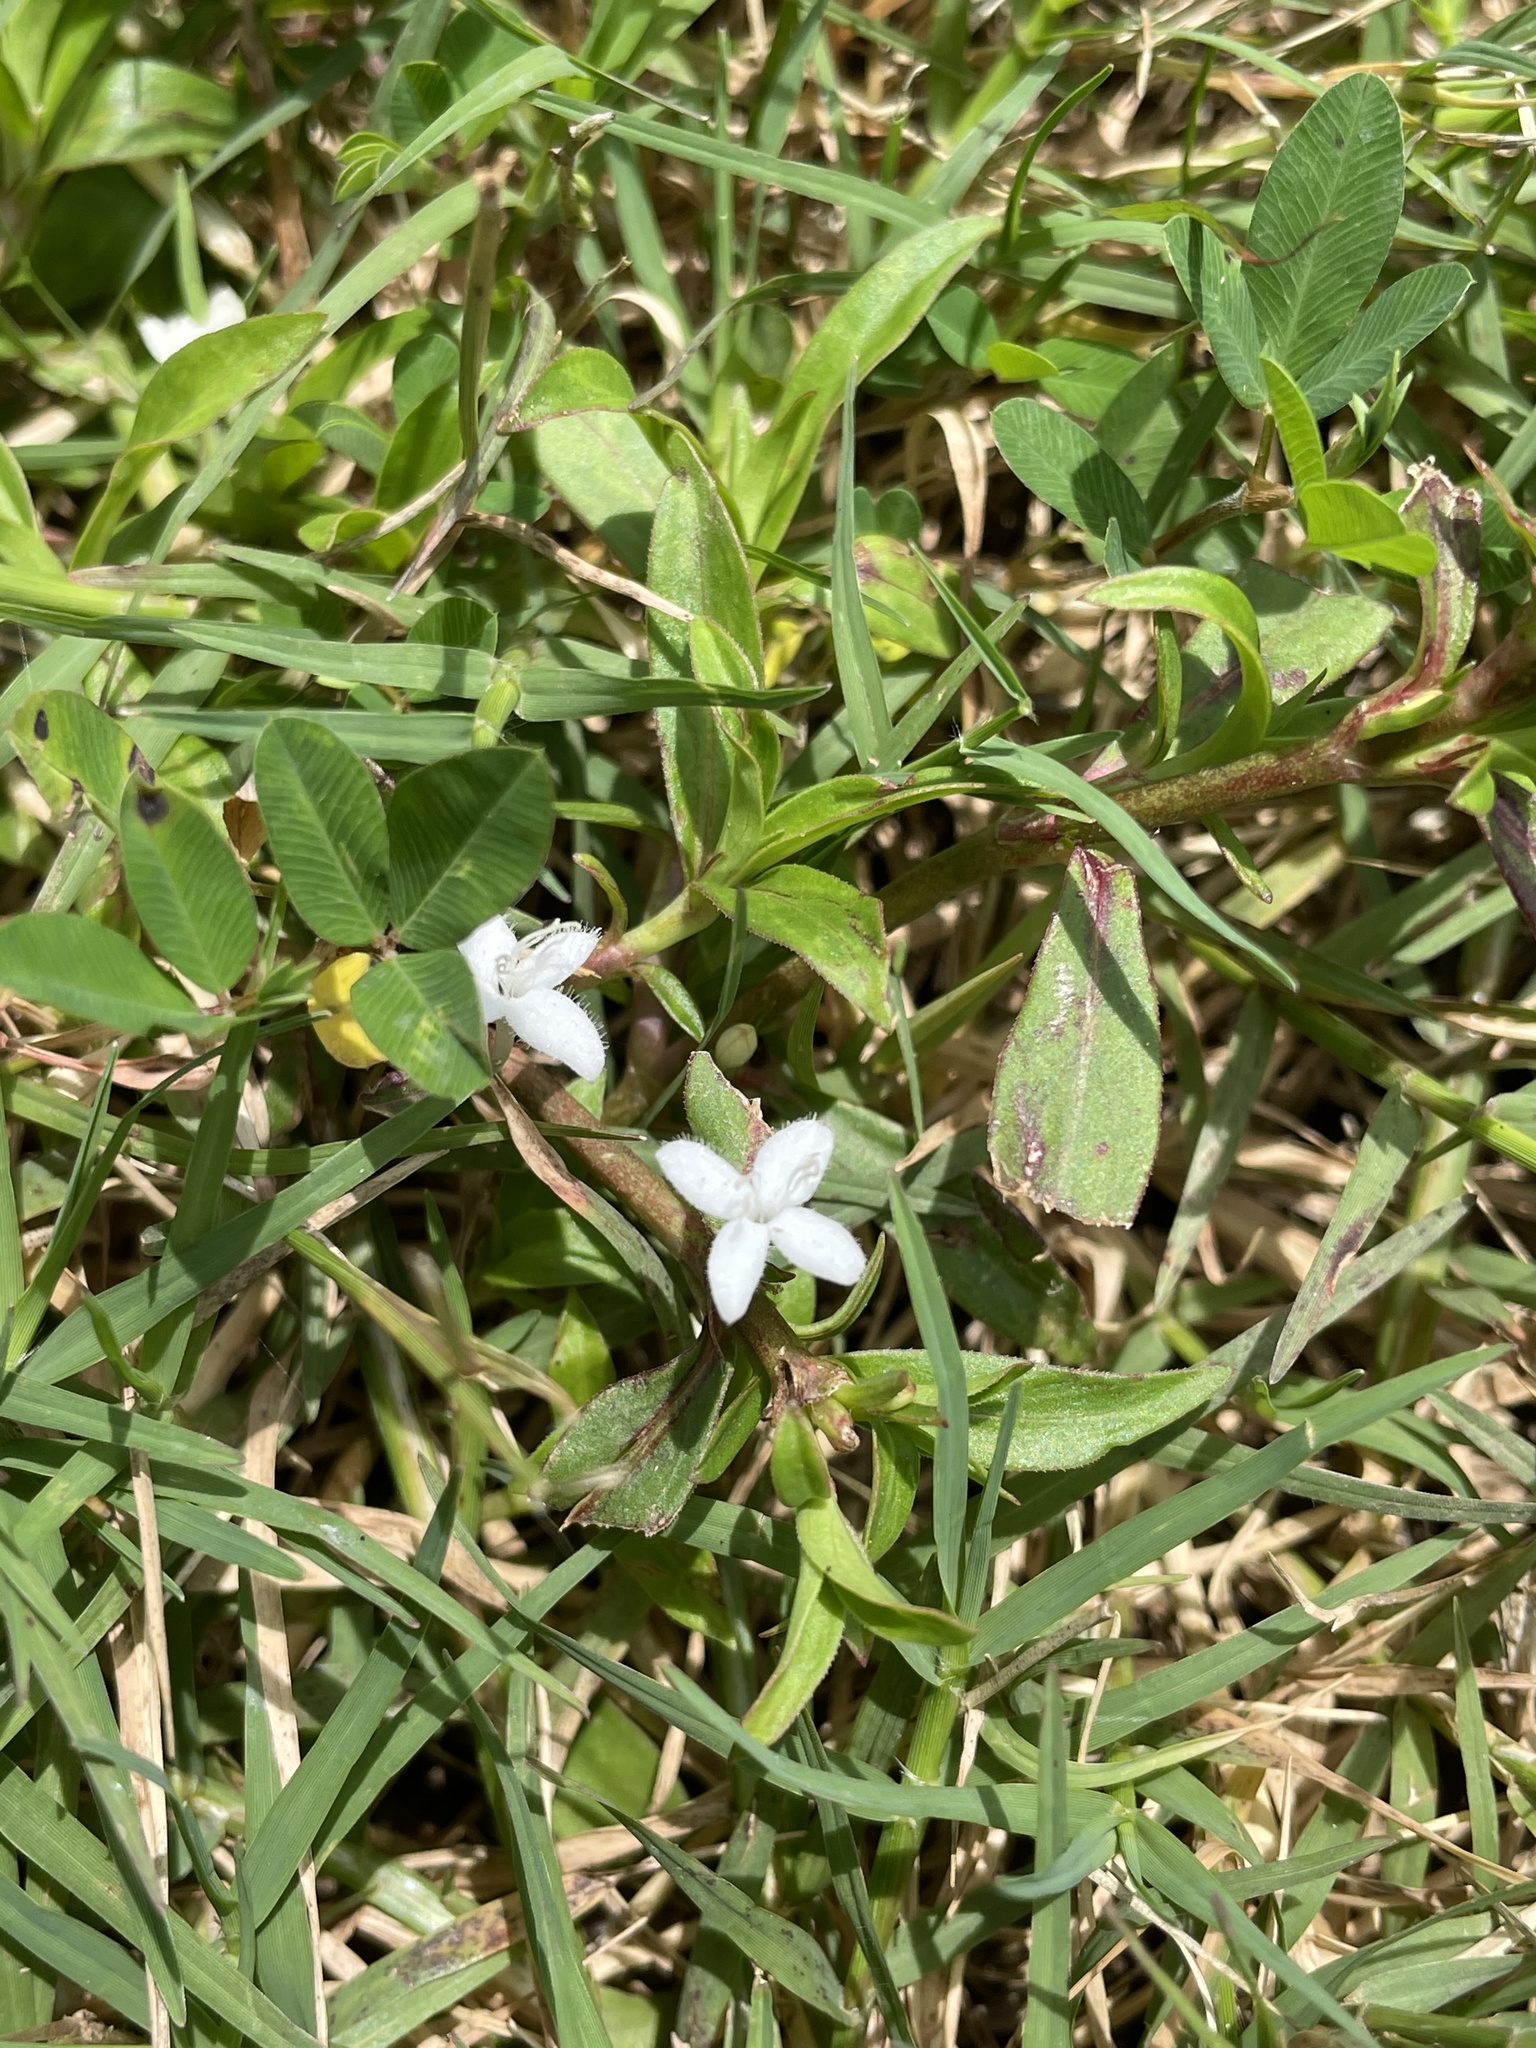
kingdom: Plantae
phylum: Tracheophyta
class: Magnoliopsida
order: Gentianales
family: Rubiaceae
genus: Diodia
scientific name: Diodia virginiana
